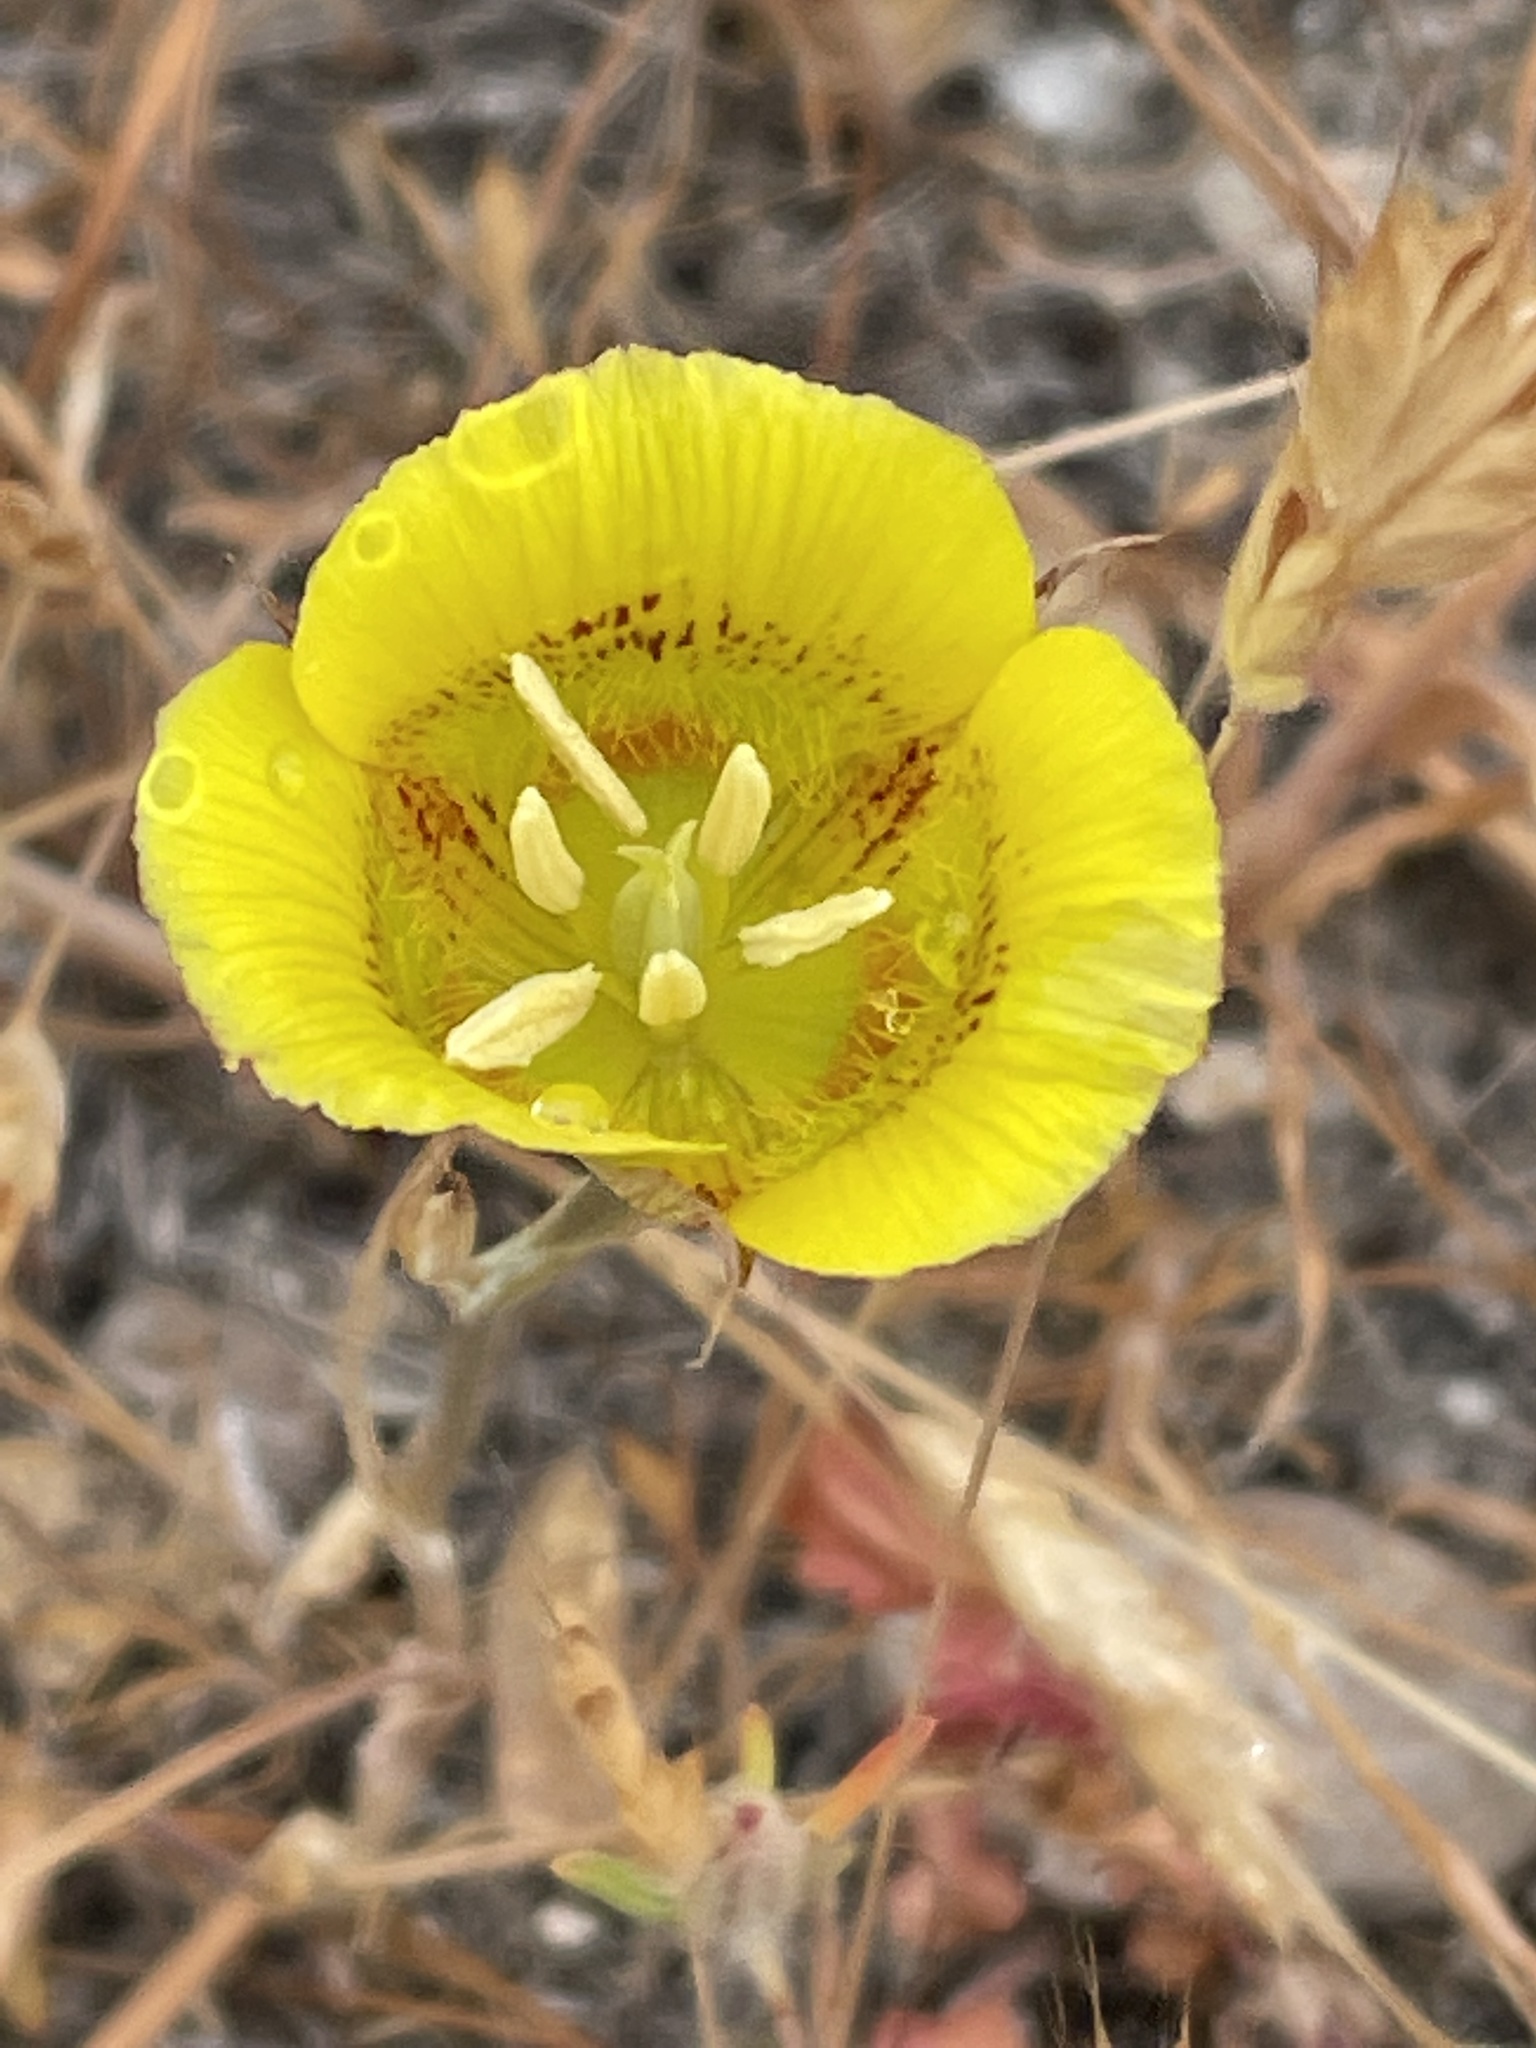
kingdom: Plantae
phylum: Tracheophyta
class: Liliopsida
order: Liliales
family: Liliaceae
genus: Calochortus
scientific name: Calochortus luteus
